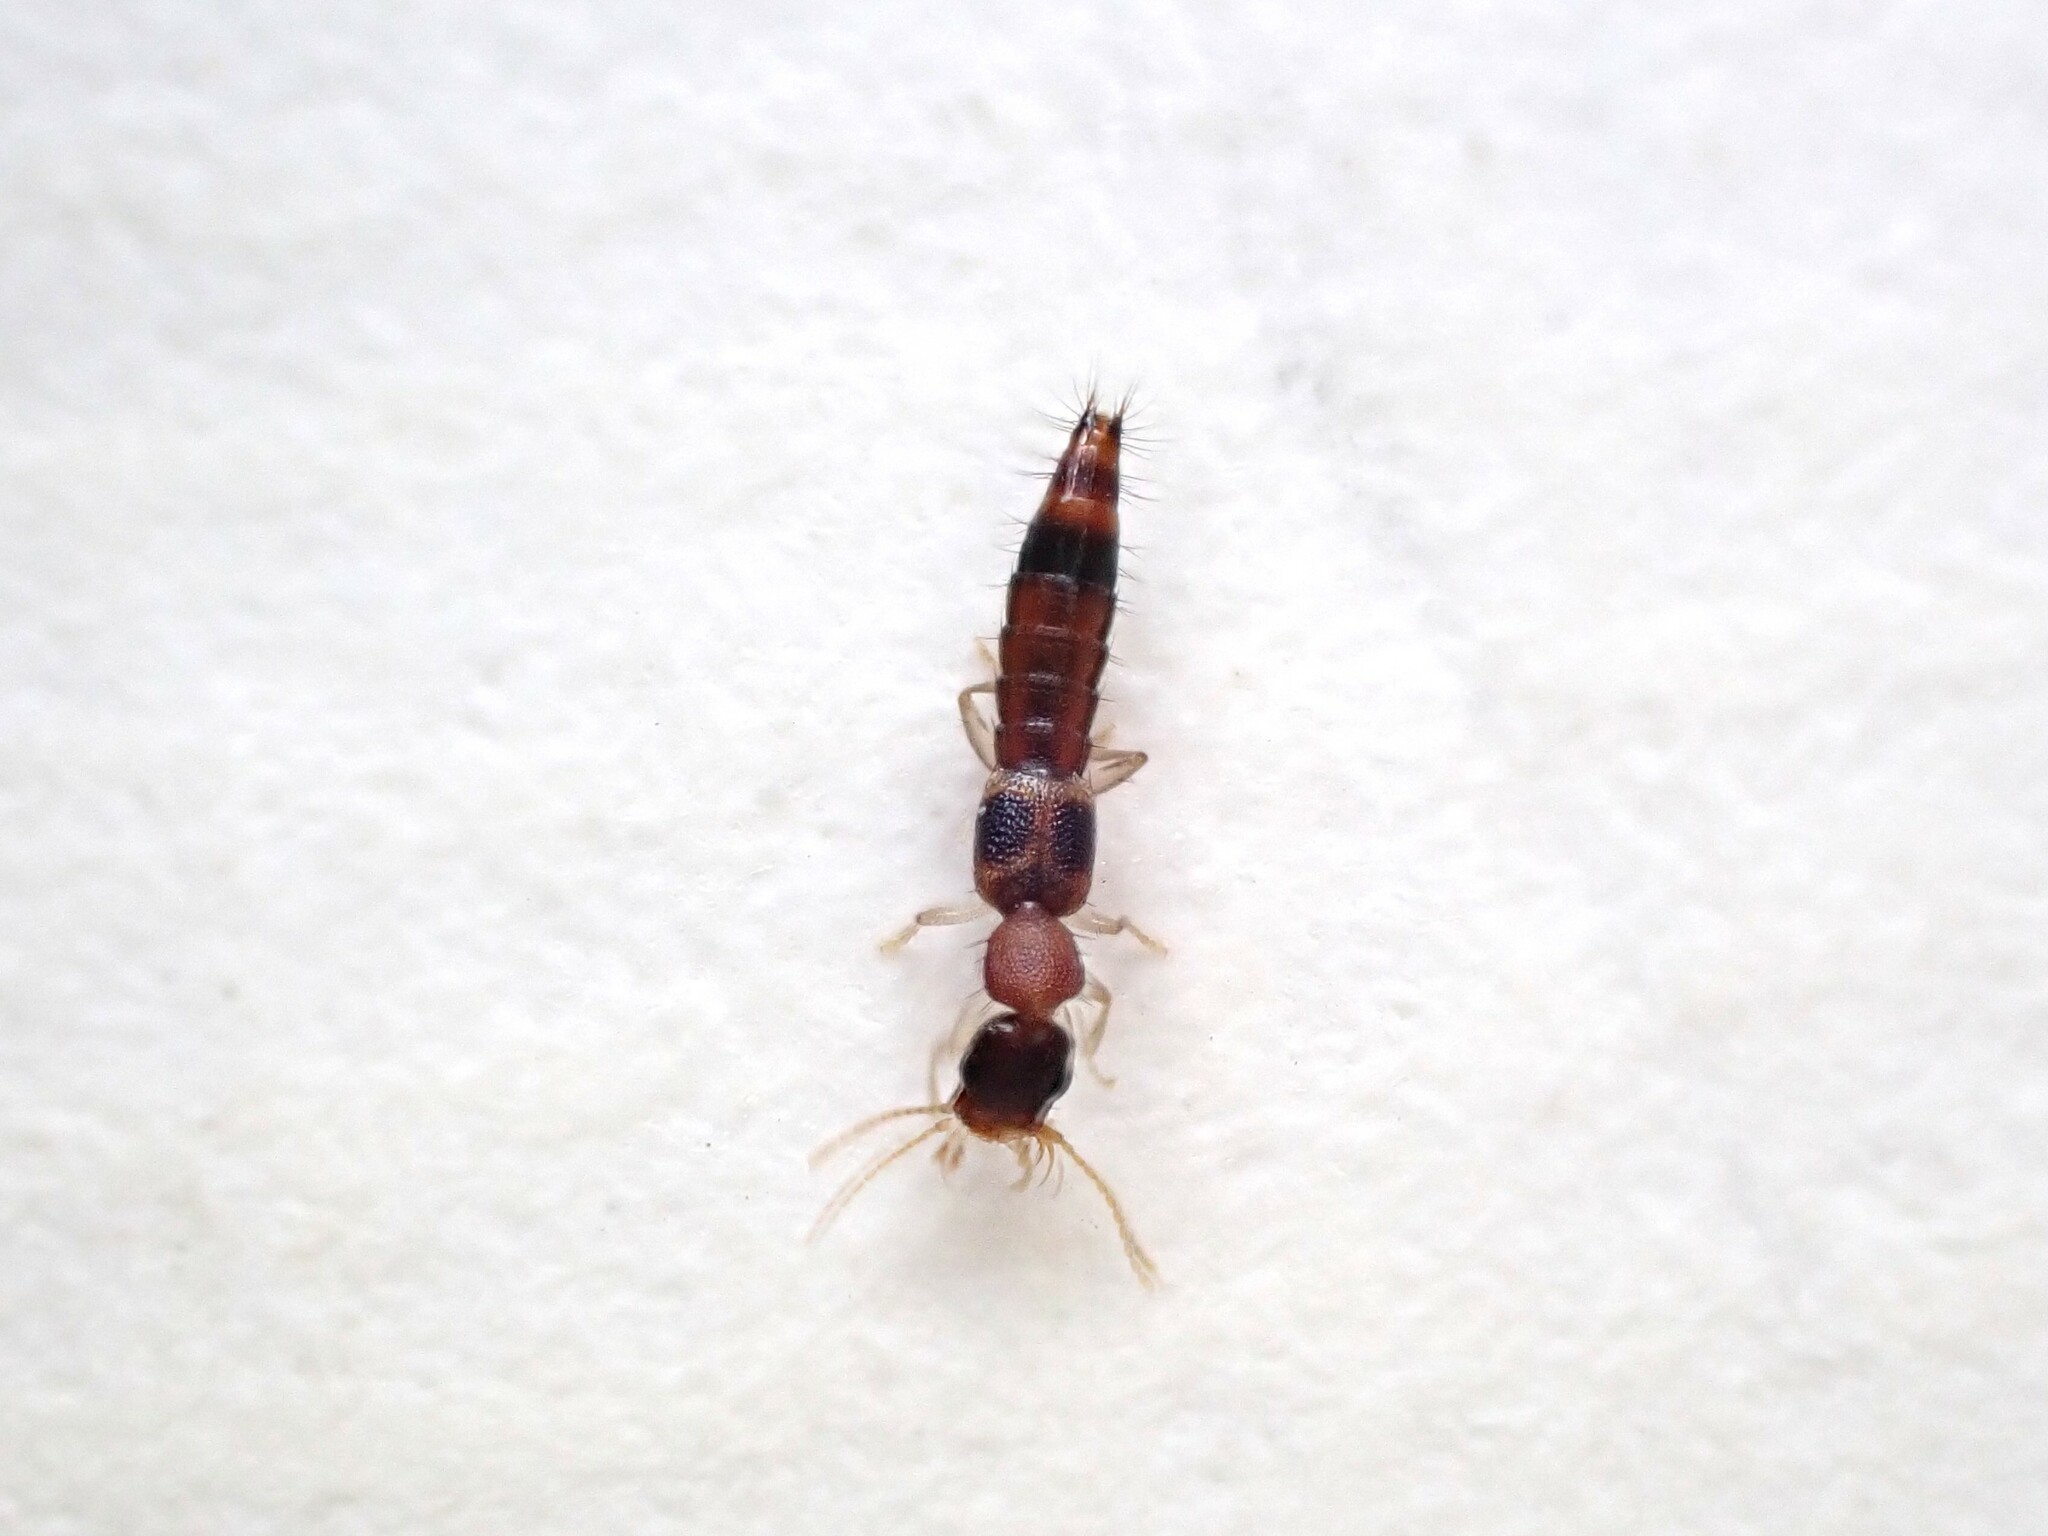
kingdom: Animalia
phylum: Arthropoda
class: Insecta
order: Coleoptera
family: Staphylinidae
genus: Astenus
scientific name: Astenus guttulus
